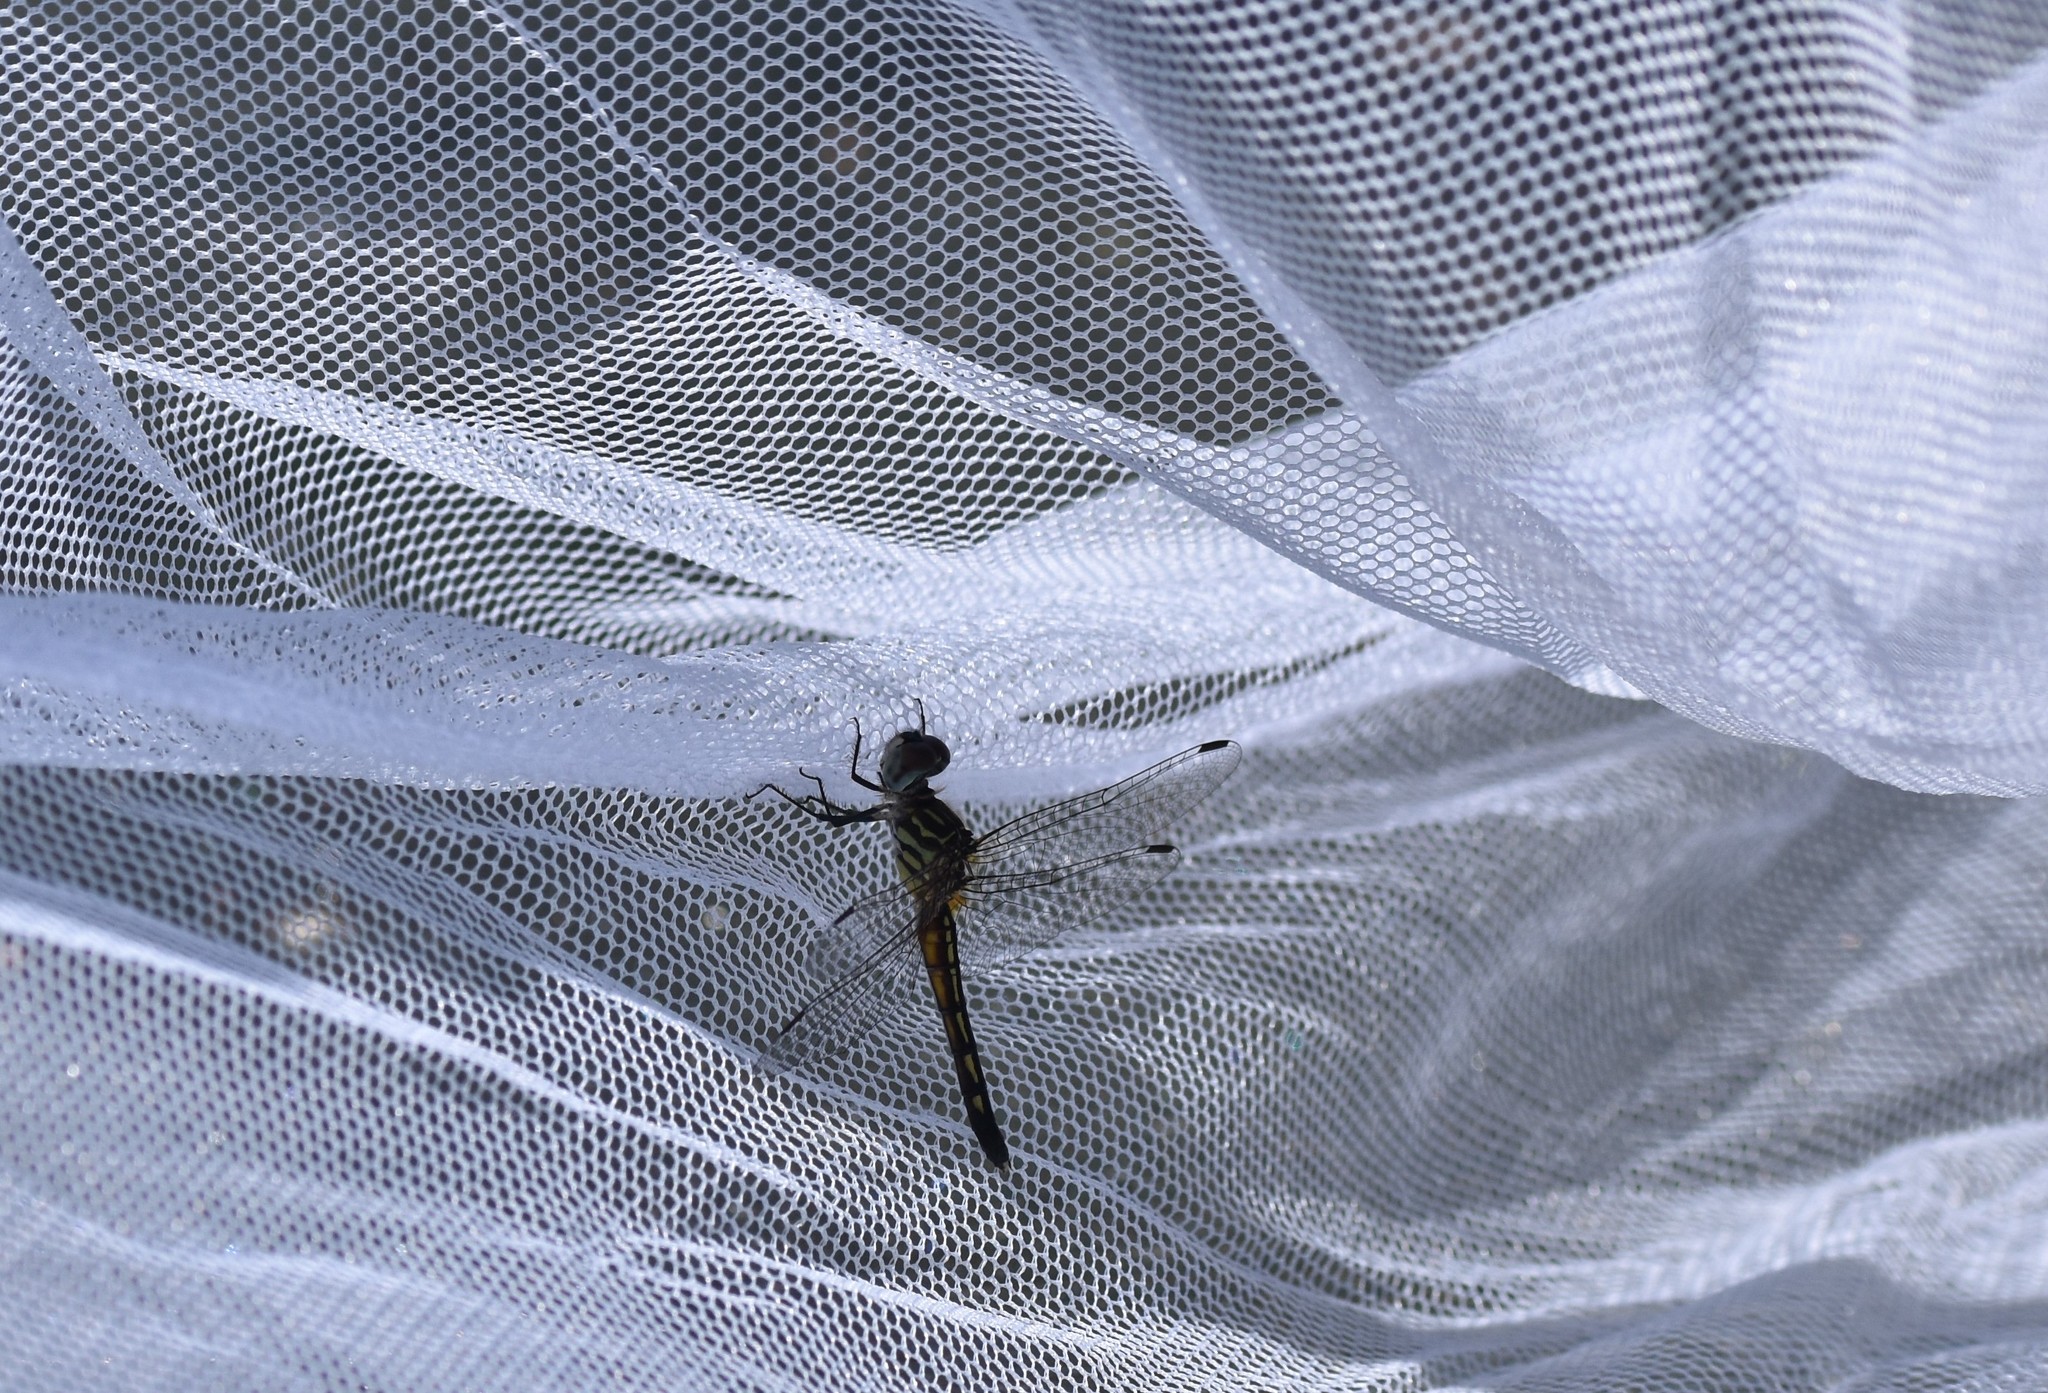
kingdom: Animalia
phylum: Arthropoda
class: Insecta
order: Odonata
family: Libellulidae
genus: Pachydiplax
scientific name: Pachydiplax longipennis
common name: Blue dasher
